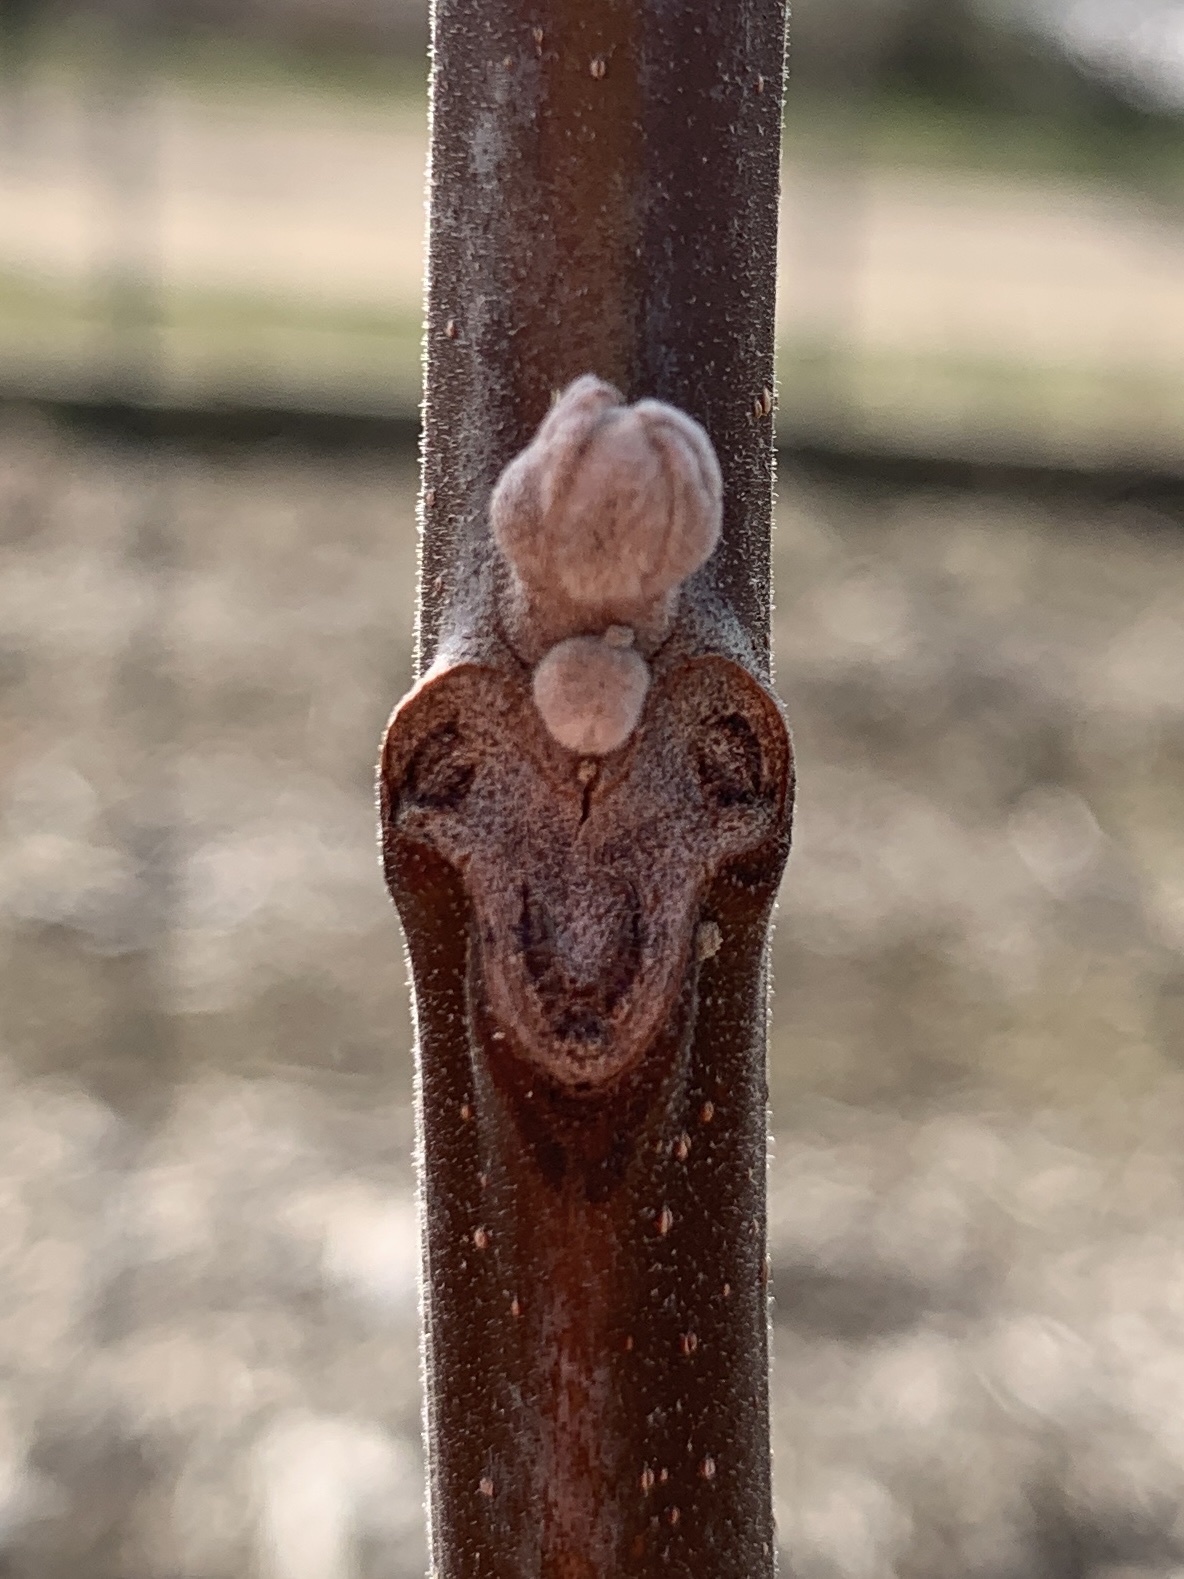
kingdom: Plantae
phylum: Tracheophyta
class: Magnoliopsida
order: Fagales
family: Juglandaceae
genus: Juglans
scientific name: Juglans nigra
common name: Black walnut
